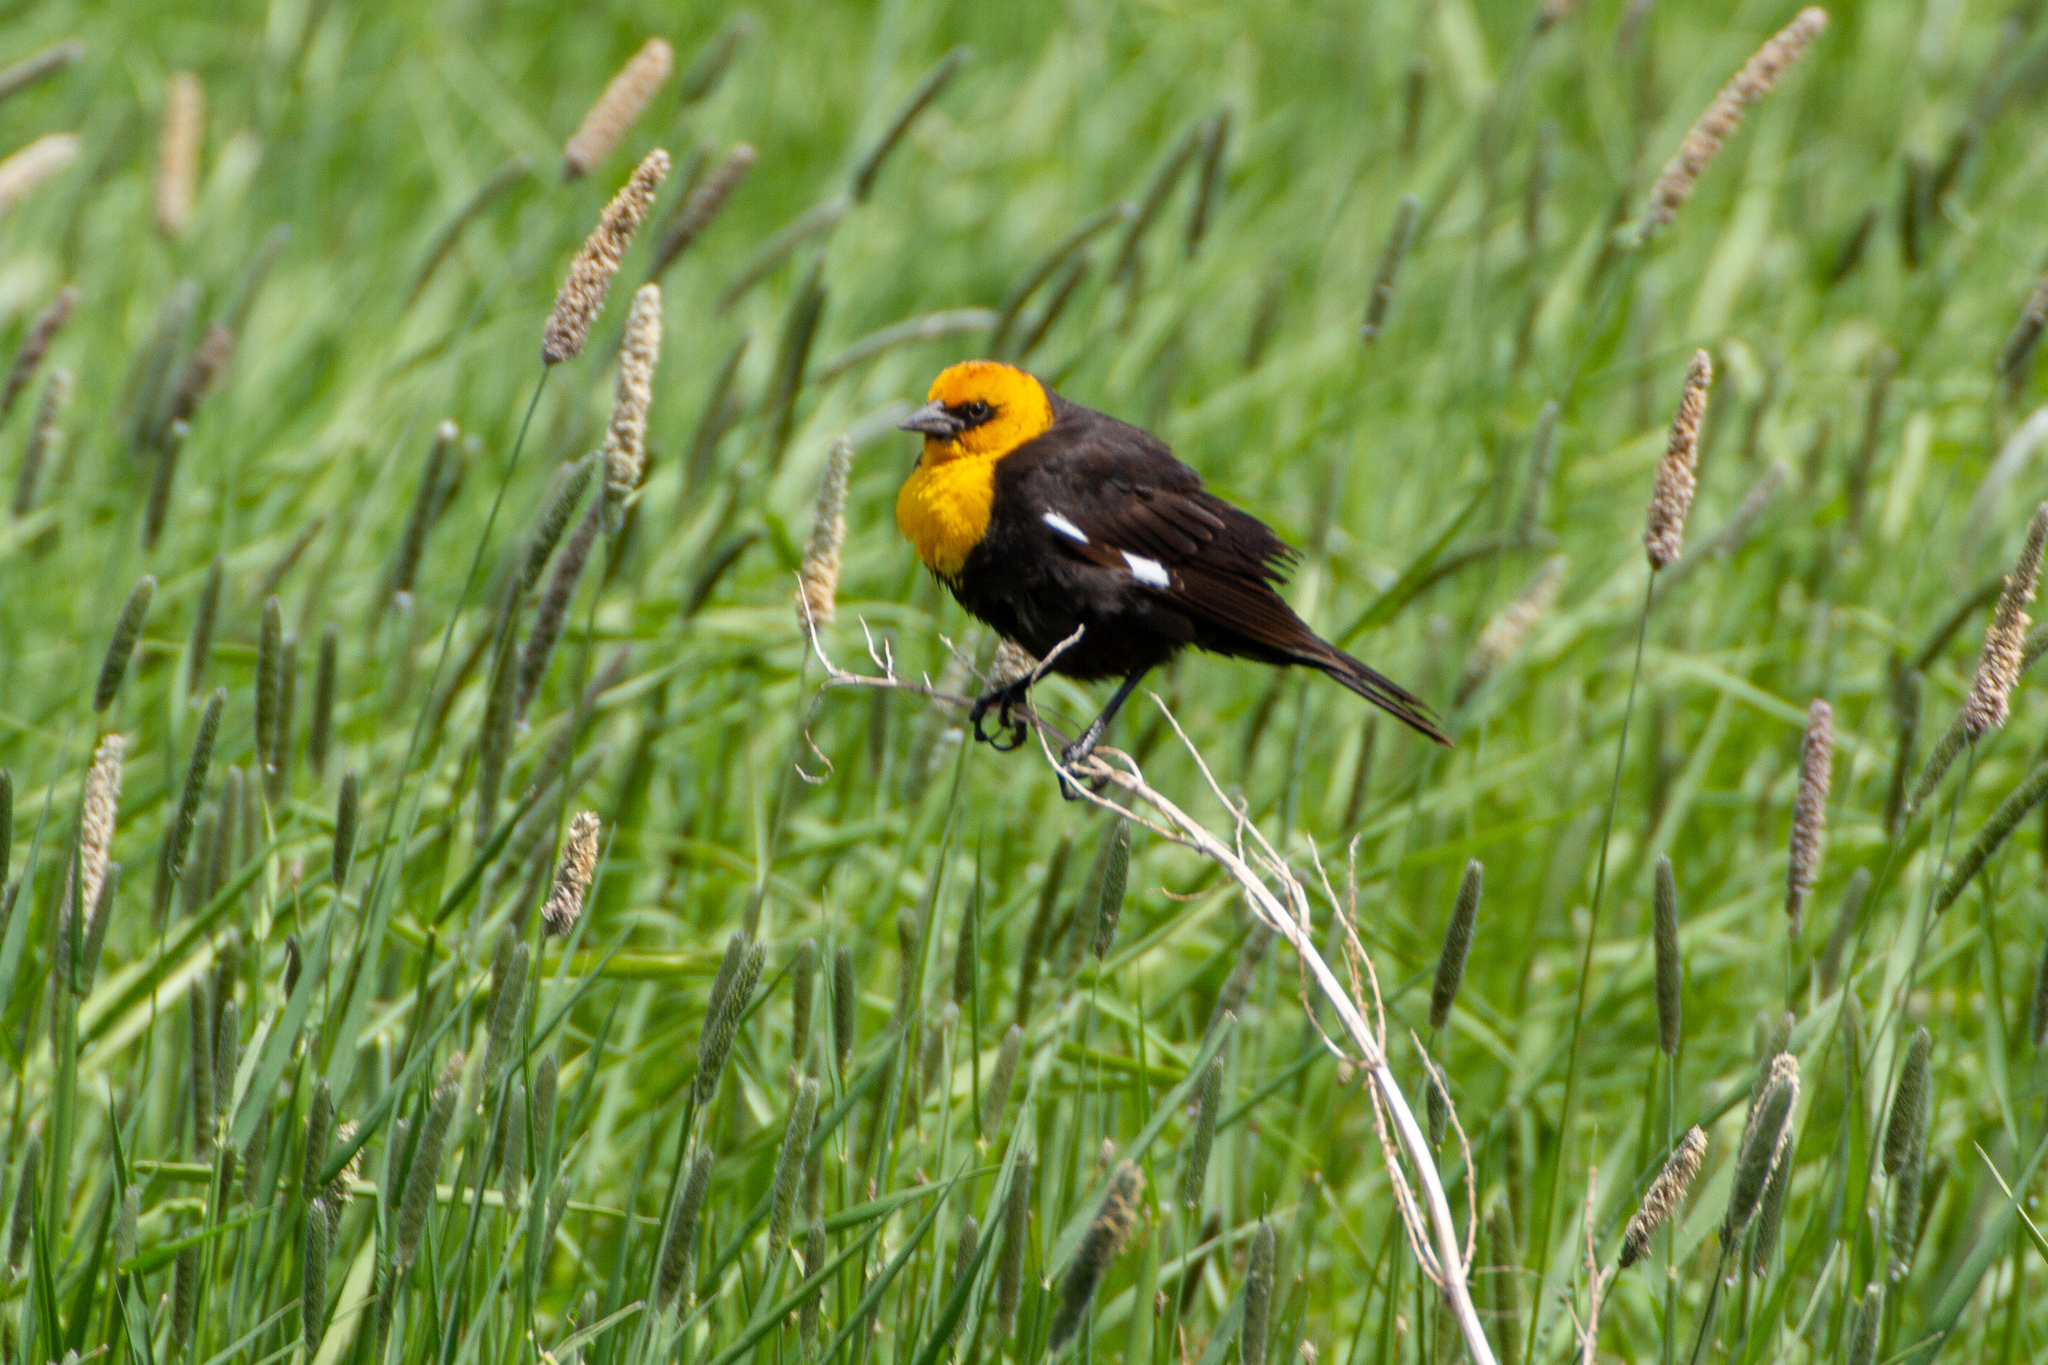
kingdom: Animalia
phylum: Chordata
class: Aves
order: Passeriformes
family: Icteridae
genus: Xanthocephalus
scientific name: Xanthocephalus xanthocephalus
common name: Yellow-headed blackbird
